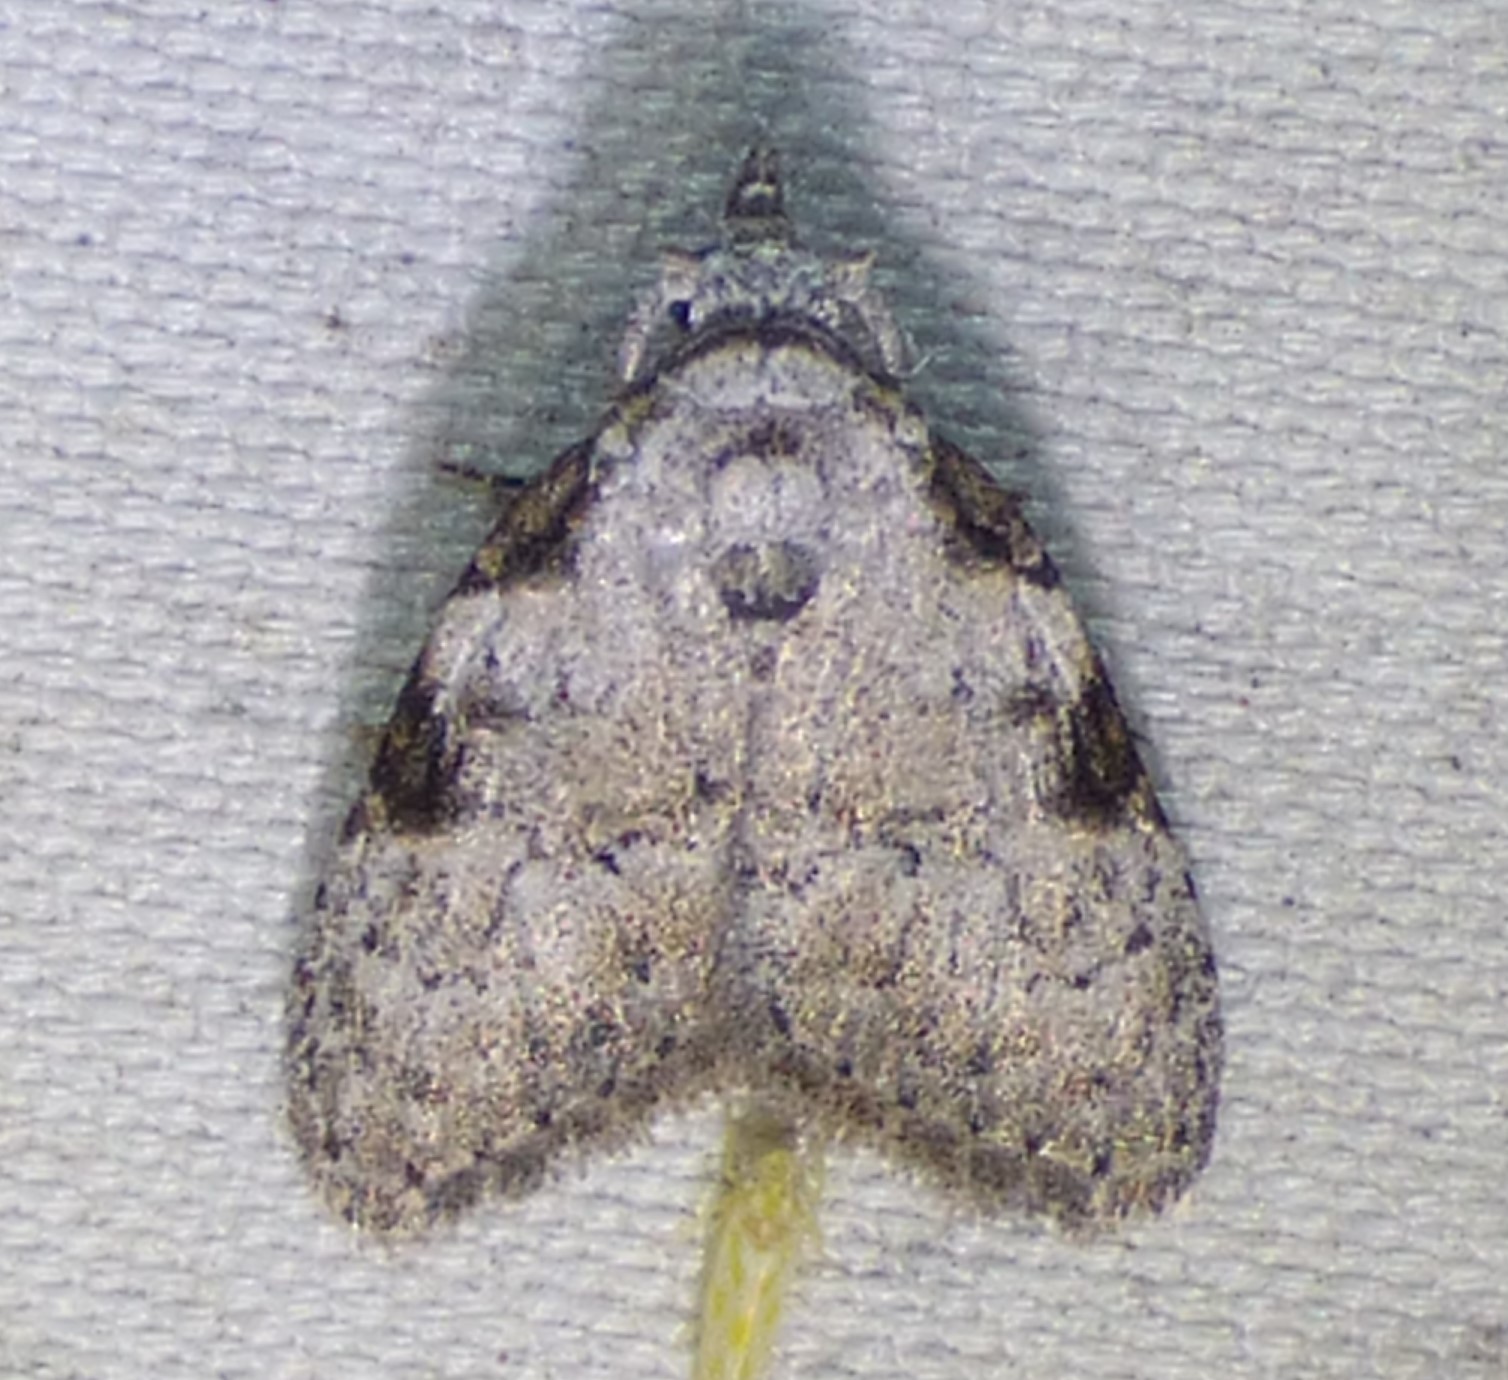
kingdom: Animalia
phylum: Arthropoda
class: Insecta
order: Lepidoptera
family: Nolidae
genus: Meganola
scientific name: Meganola minuscula
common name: Confused meganola moth
